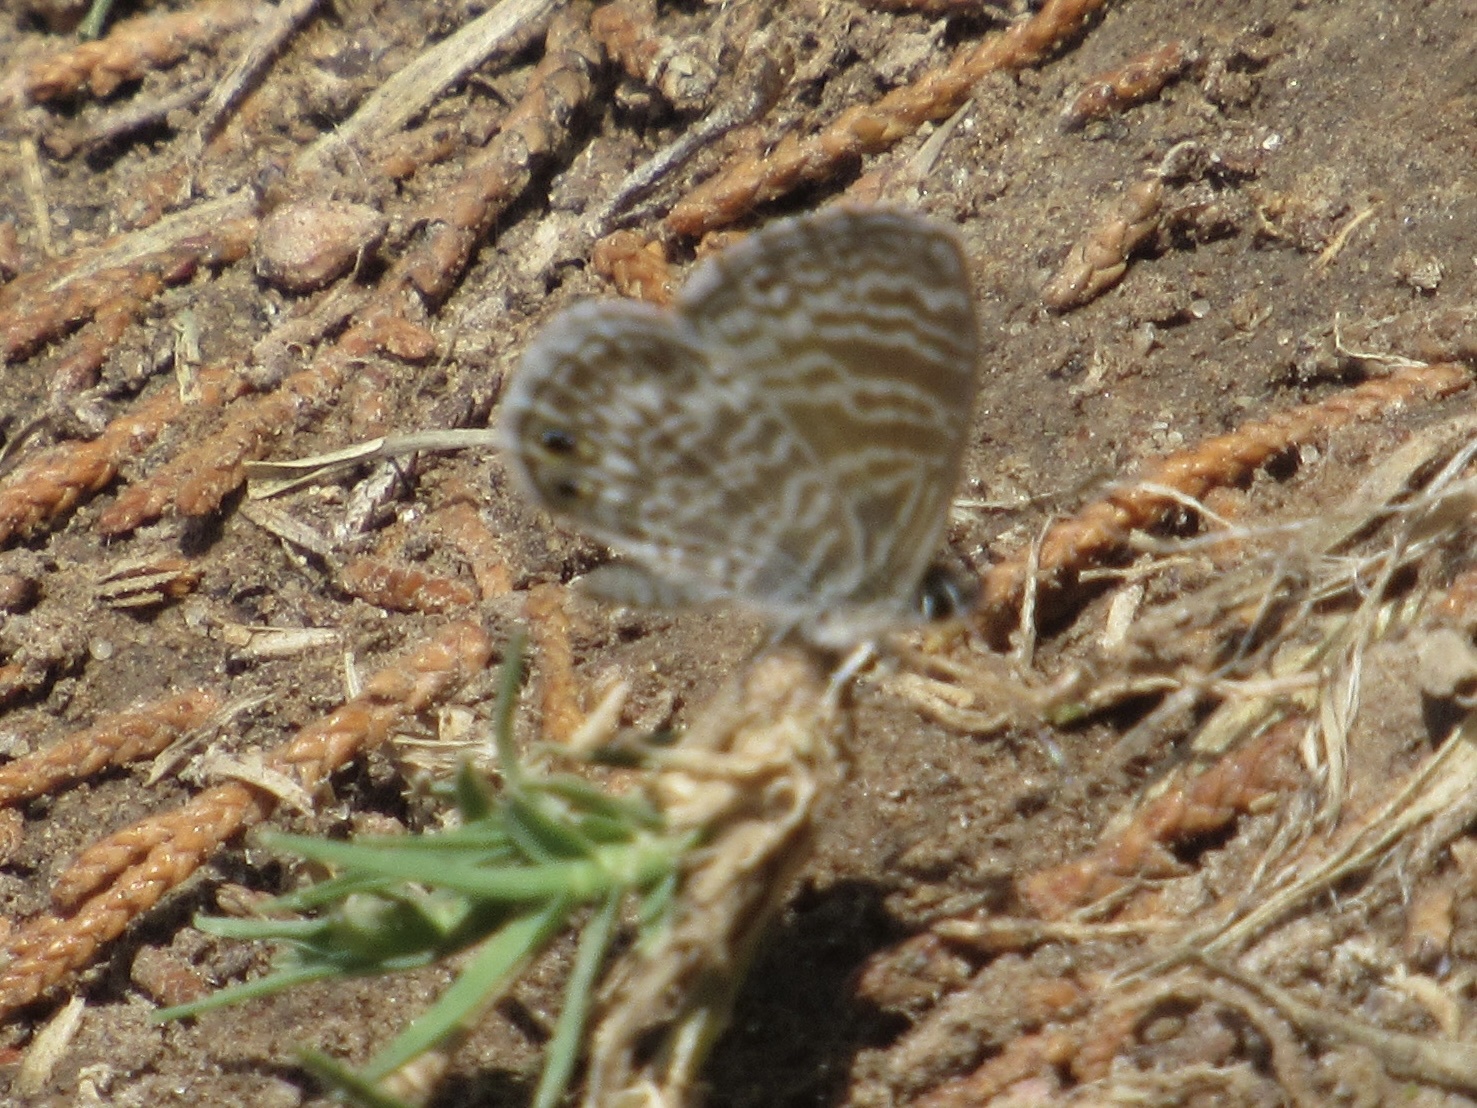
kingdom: Animalia
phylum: Arthropoda
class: Insecta
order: Lepidoptera
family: Lycaenidae
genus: Leptotes
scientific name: Leptotes marina
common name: Marine blue
